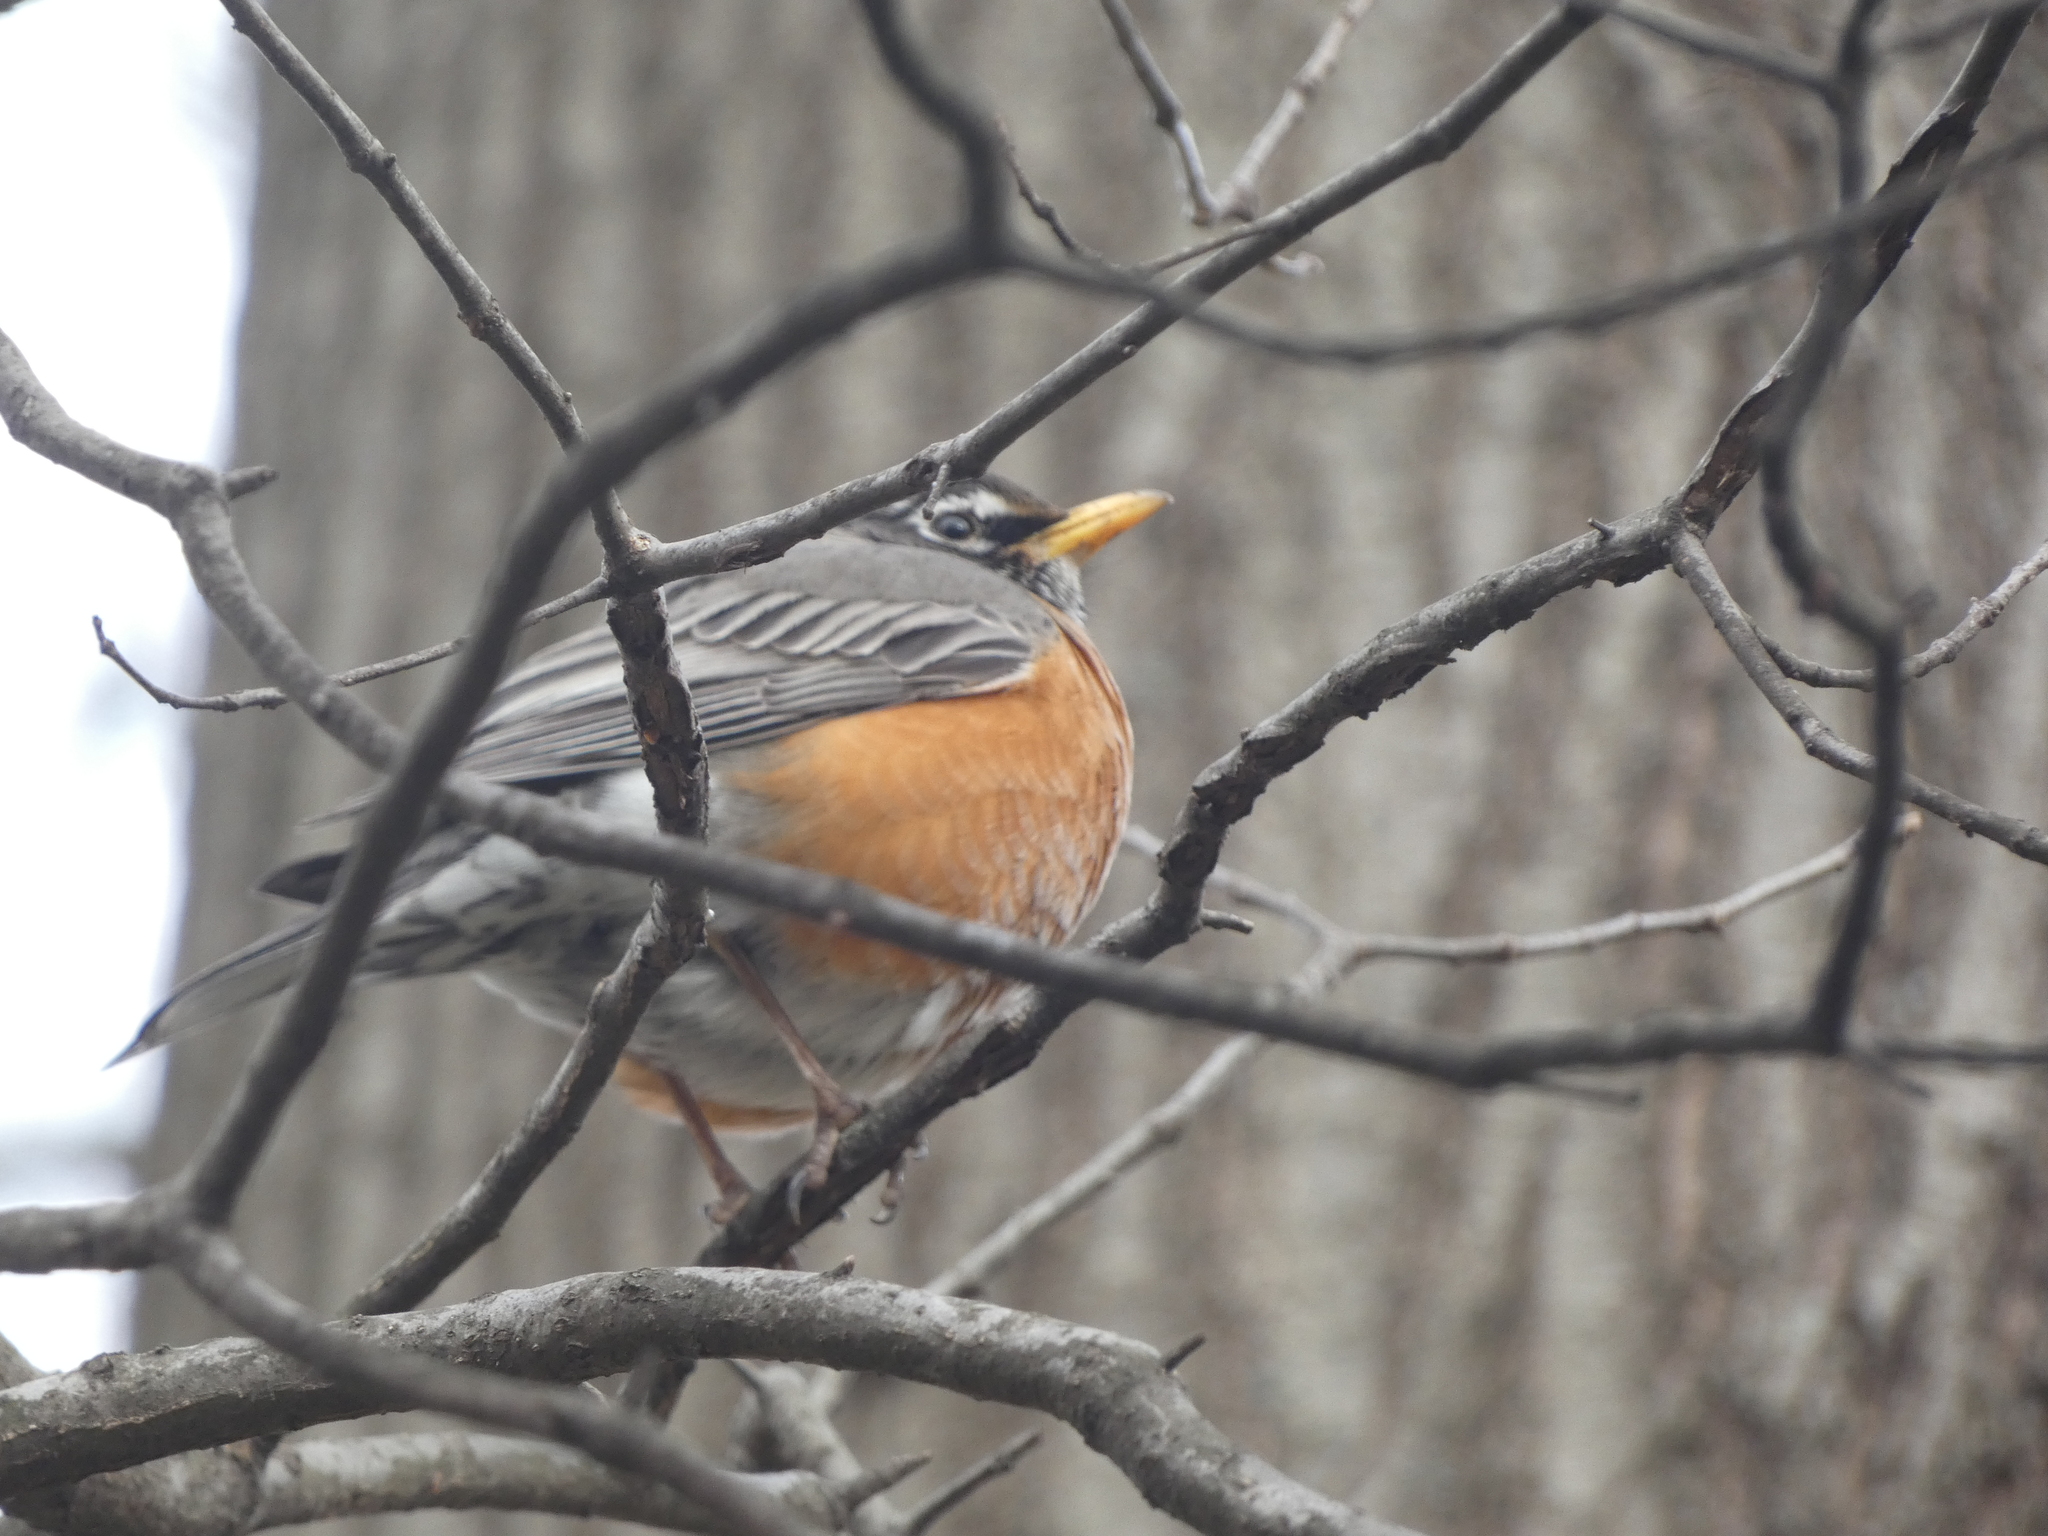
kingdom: Animalia
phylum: Chordata
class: Aves
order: Passeriformes
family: Turdidae
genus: Turdus
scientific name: Turdus migratorius
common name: American robin
